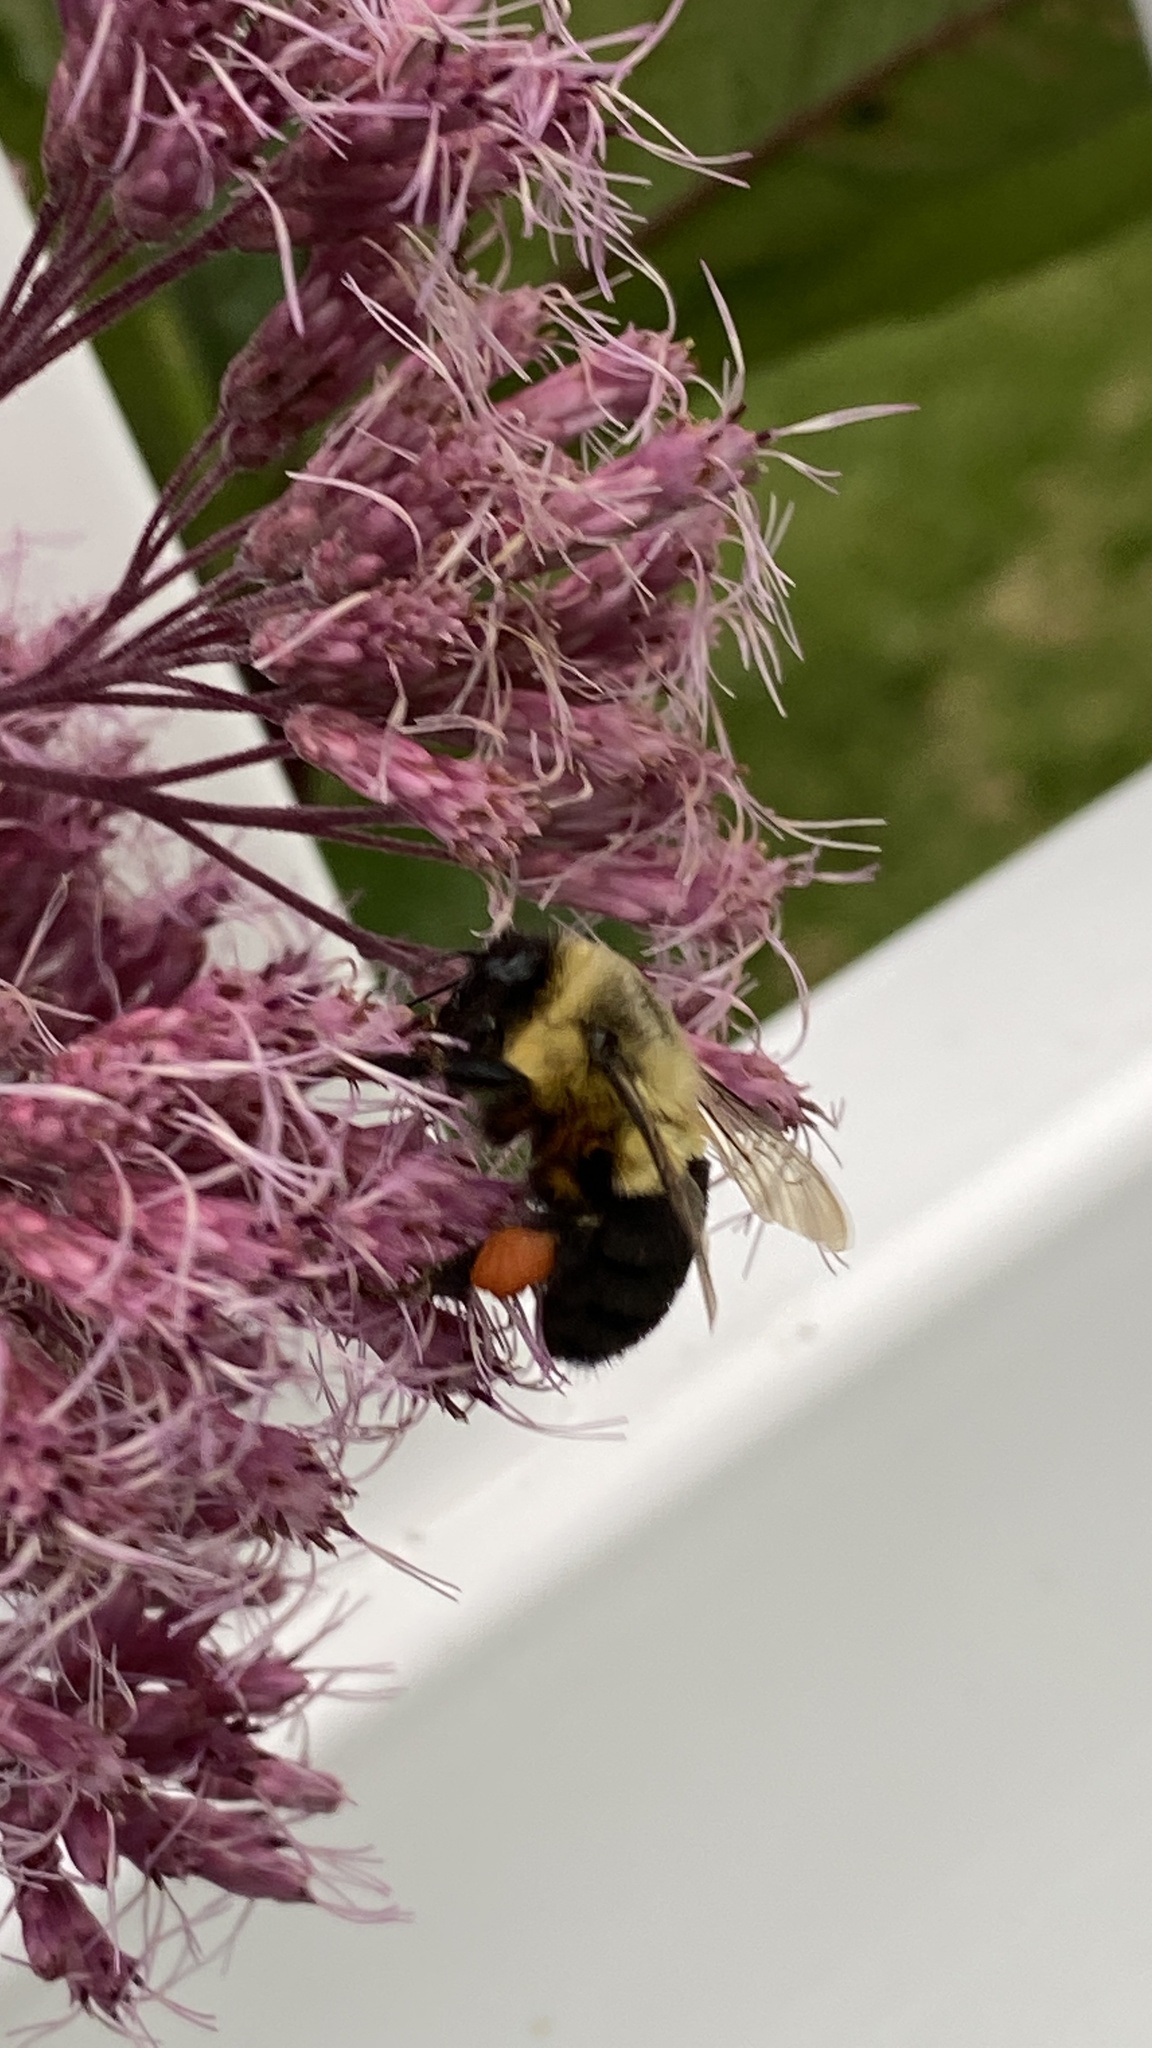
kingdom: Animalia
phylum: Arthropoda
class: Insecta
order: Hymenoptera
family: Apidae
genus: Bombus
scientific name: Bombus impatiens
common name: Common eastern bumble bee
